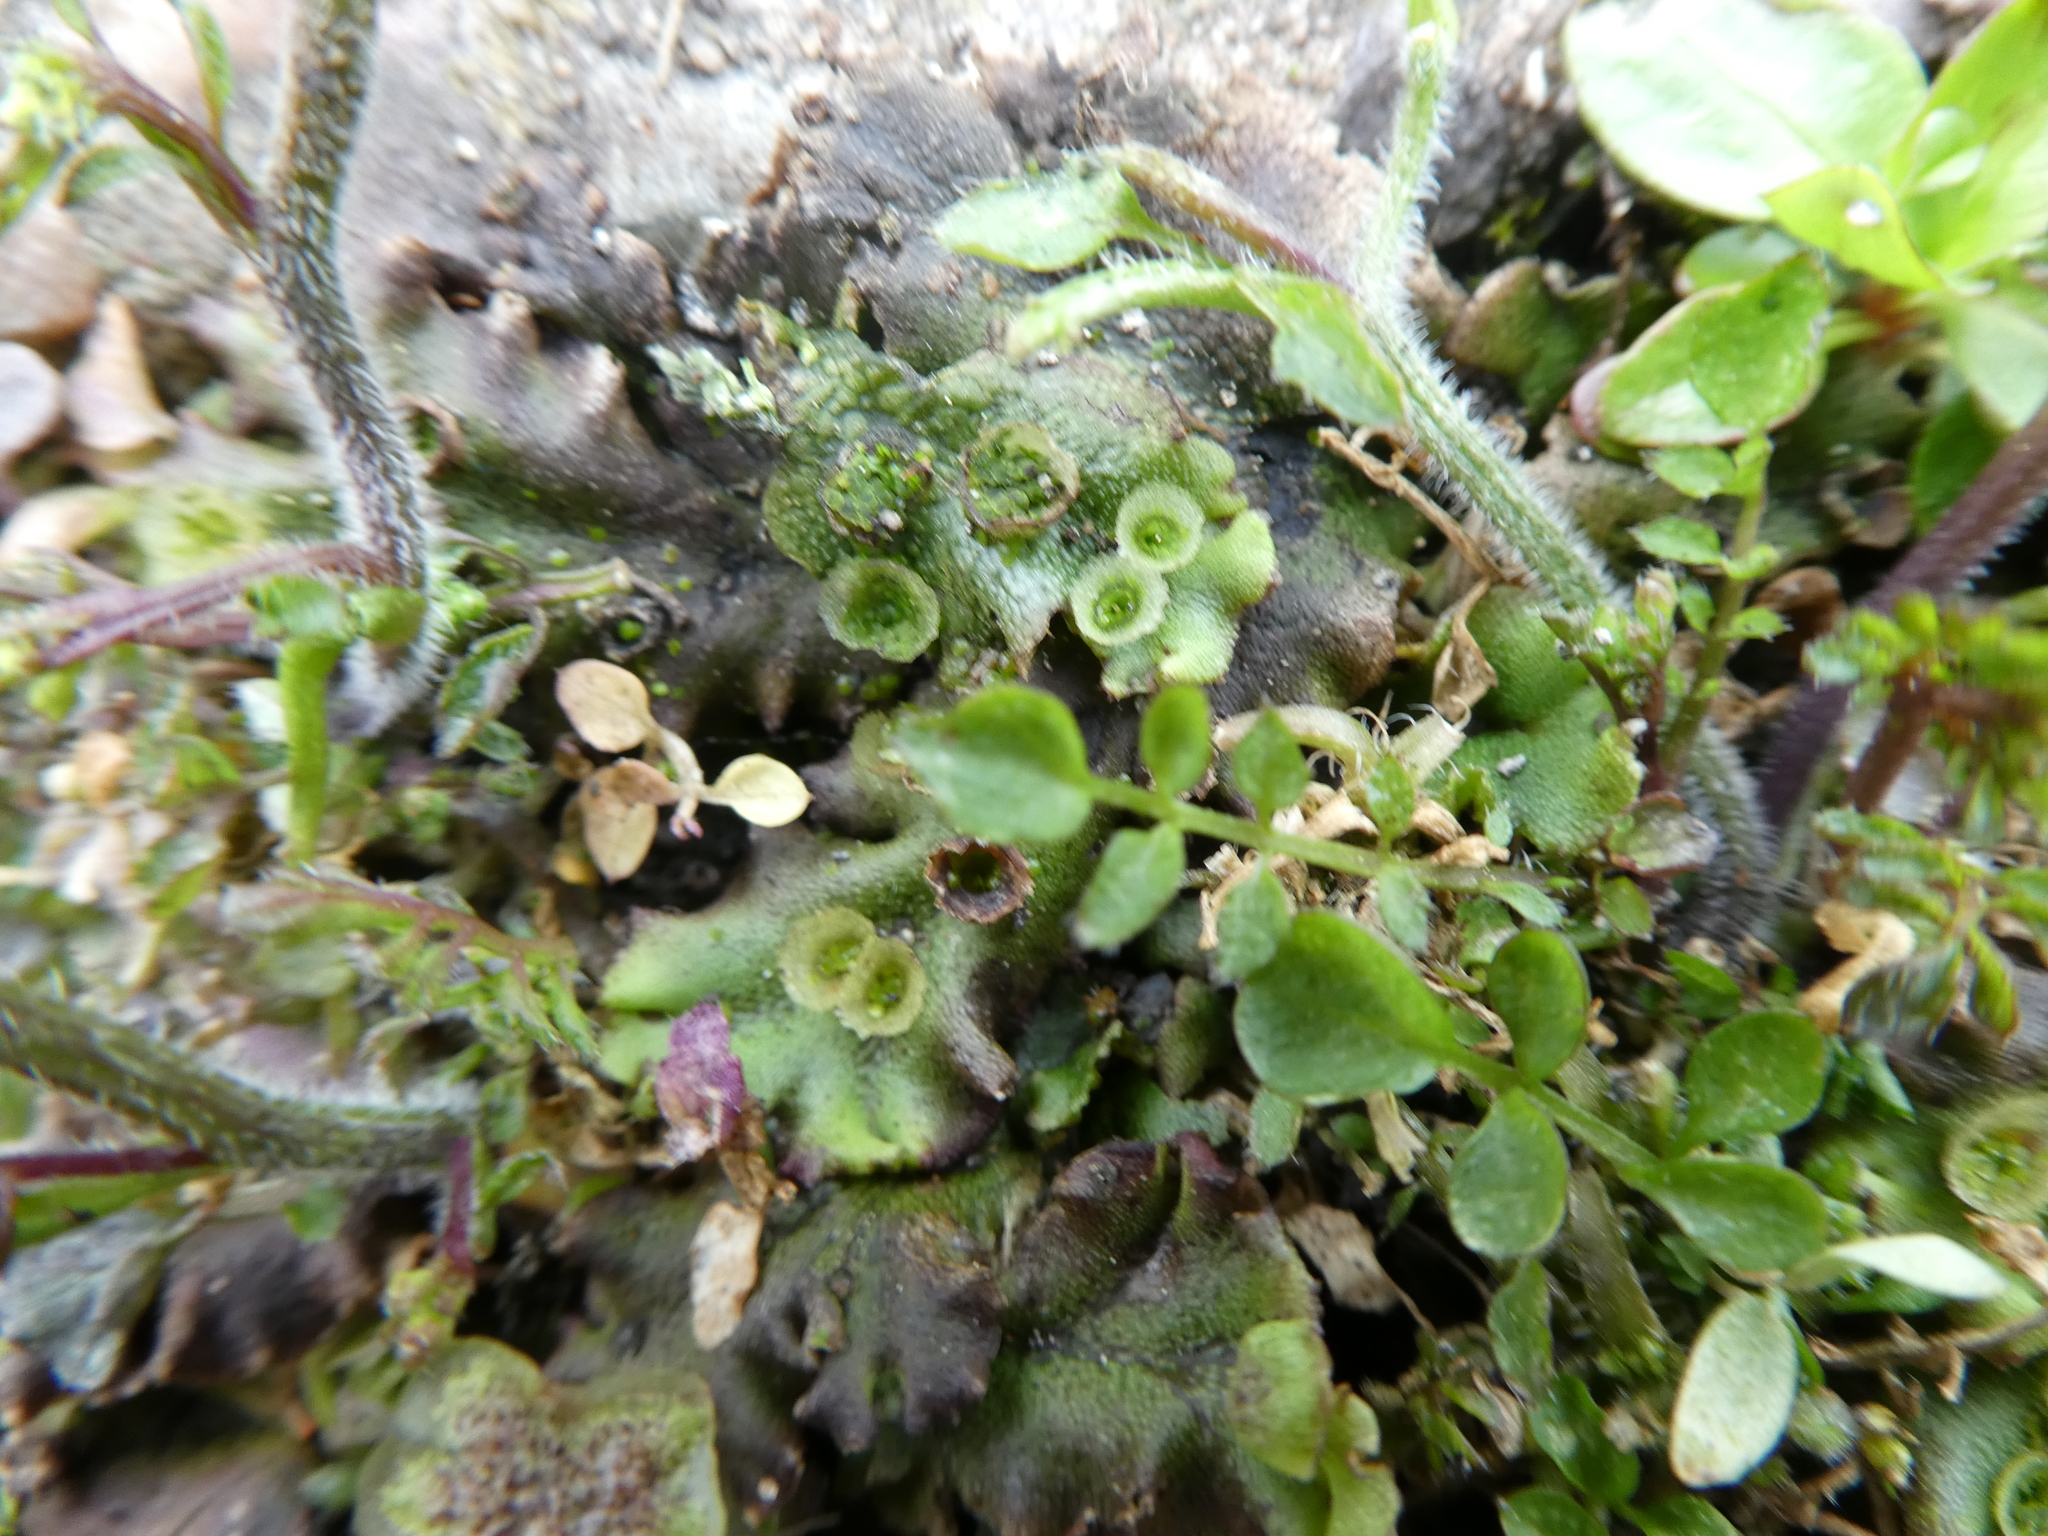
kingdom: Plantae
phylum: Marchantiophyta
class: Marchantiopsida
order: Marchantiales
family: Marchantiaceae
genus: Marchantia
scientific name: Marchantia polymorpha
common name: Common liverwort
